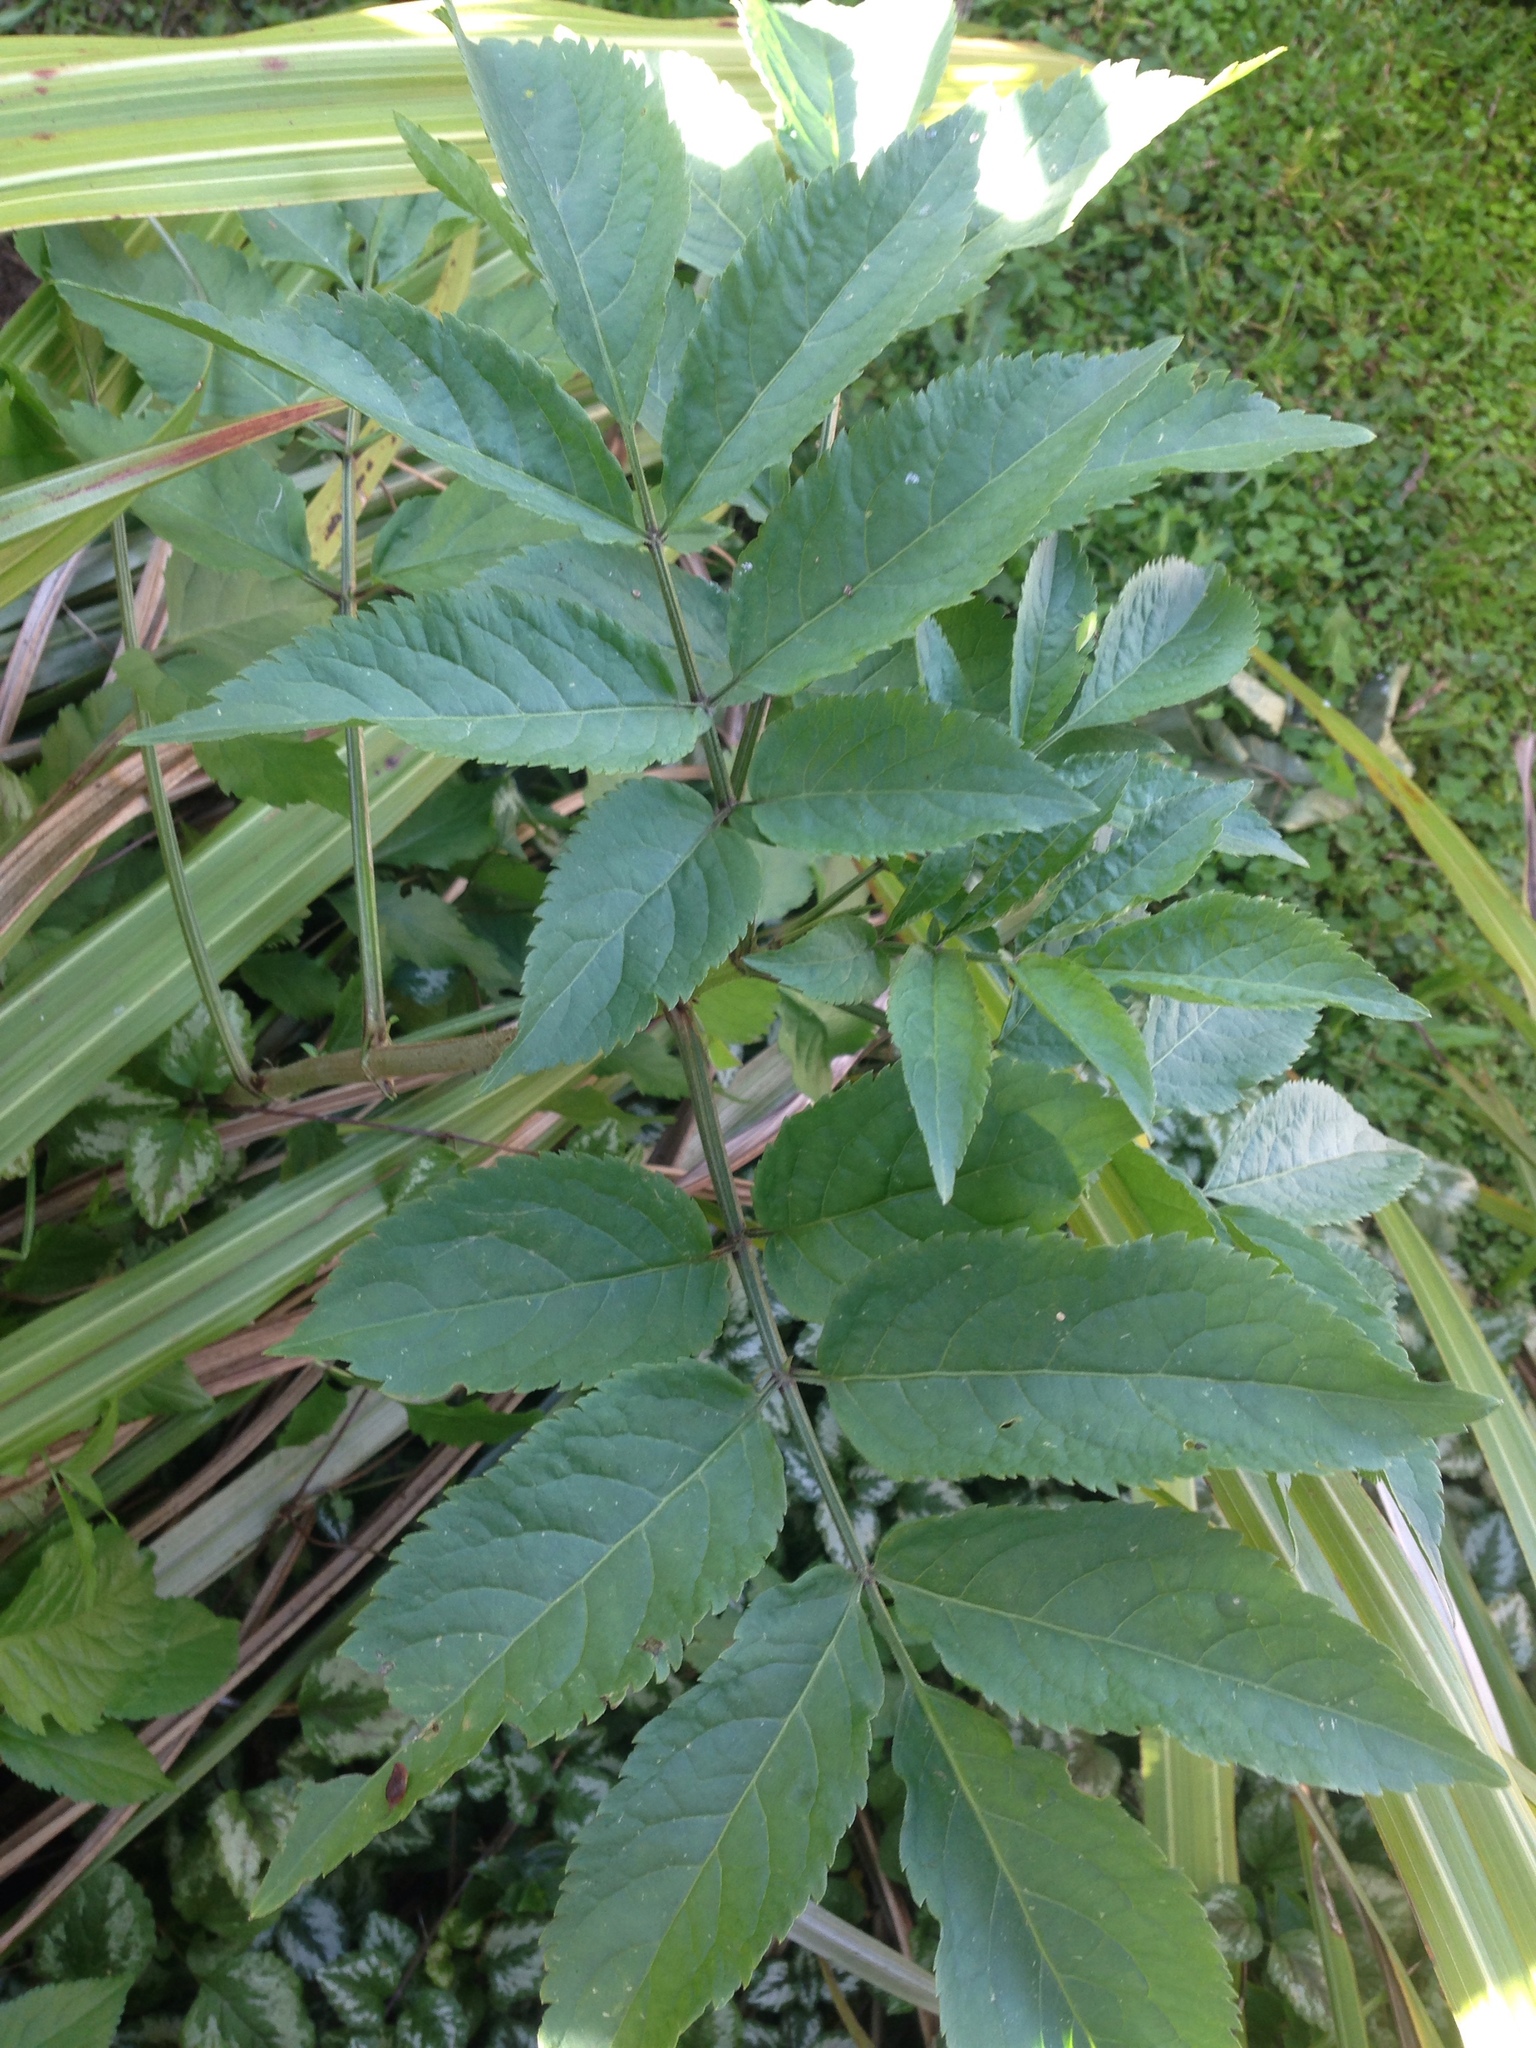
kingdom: Plantae
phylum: Tracheophyta
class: Magnoliopsida
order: Dipsacales
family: Viburnaceae
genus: Sambucus
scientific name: Sambucus nigra
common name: Elder
